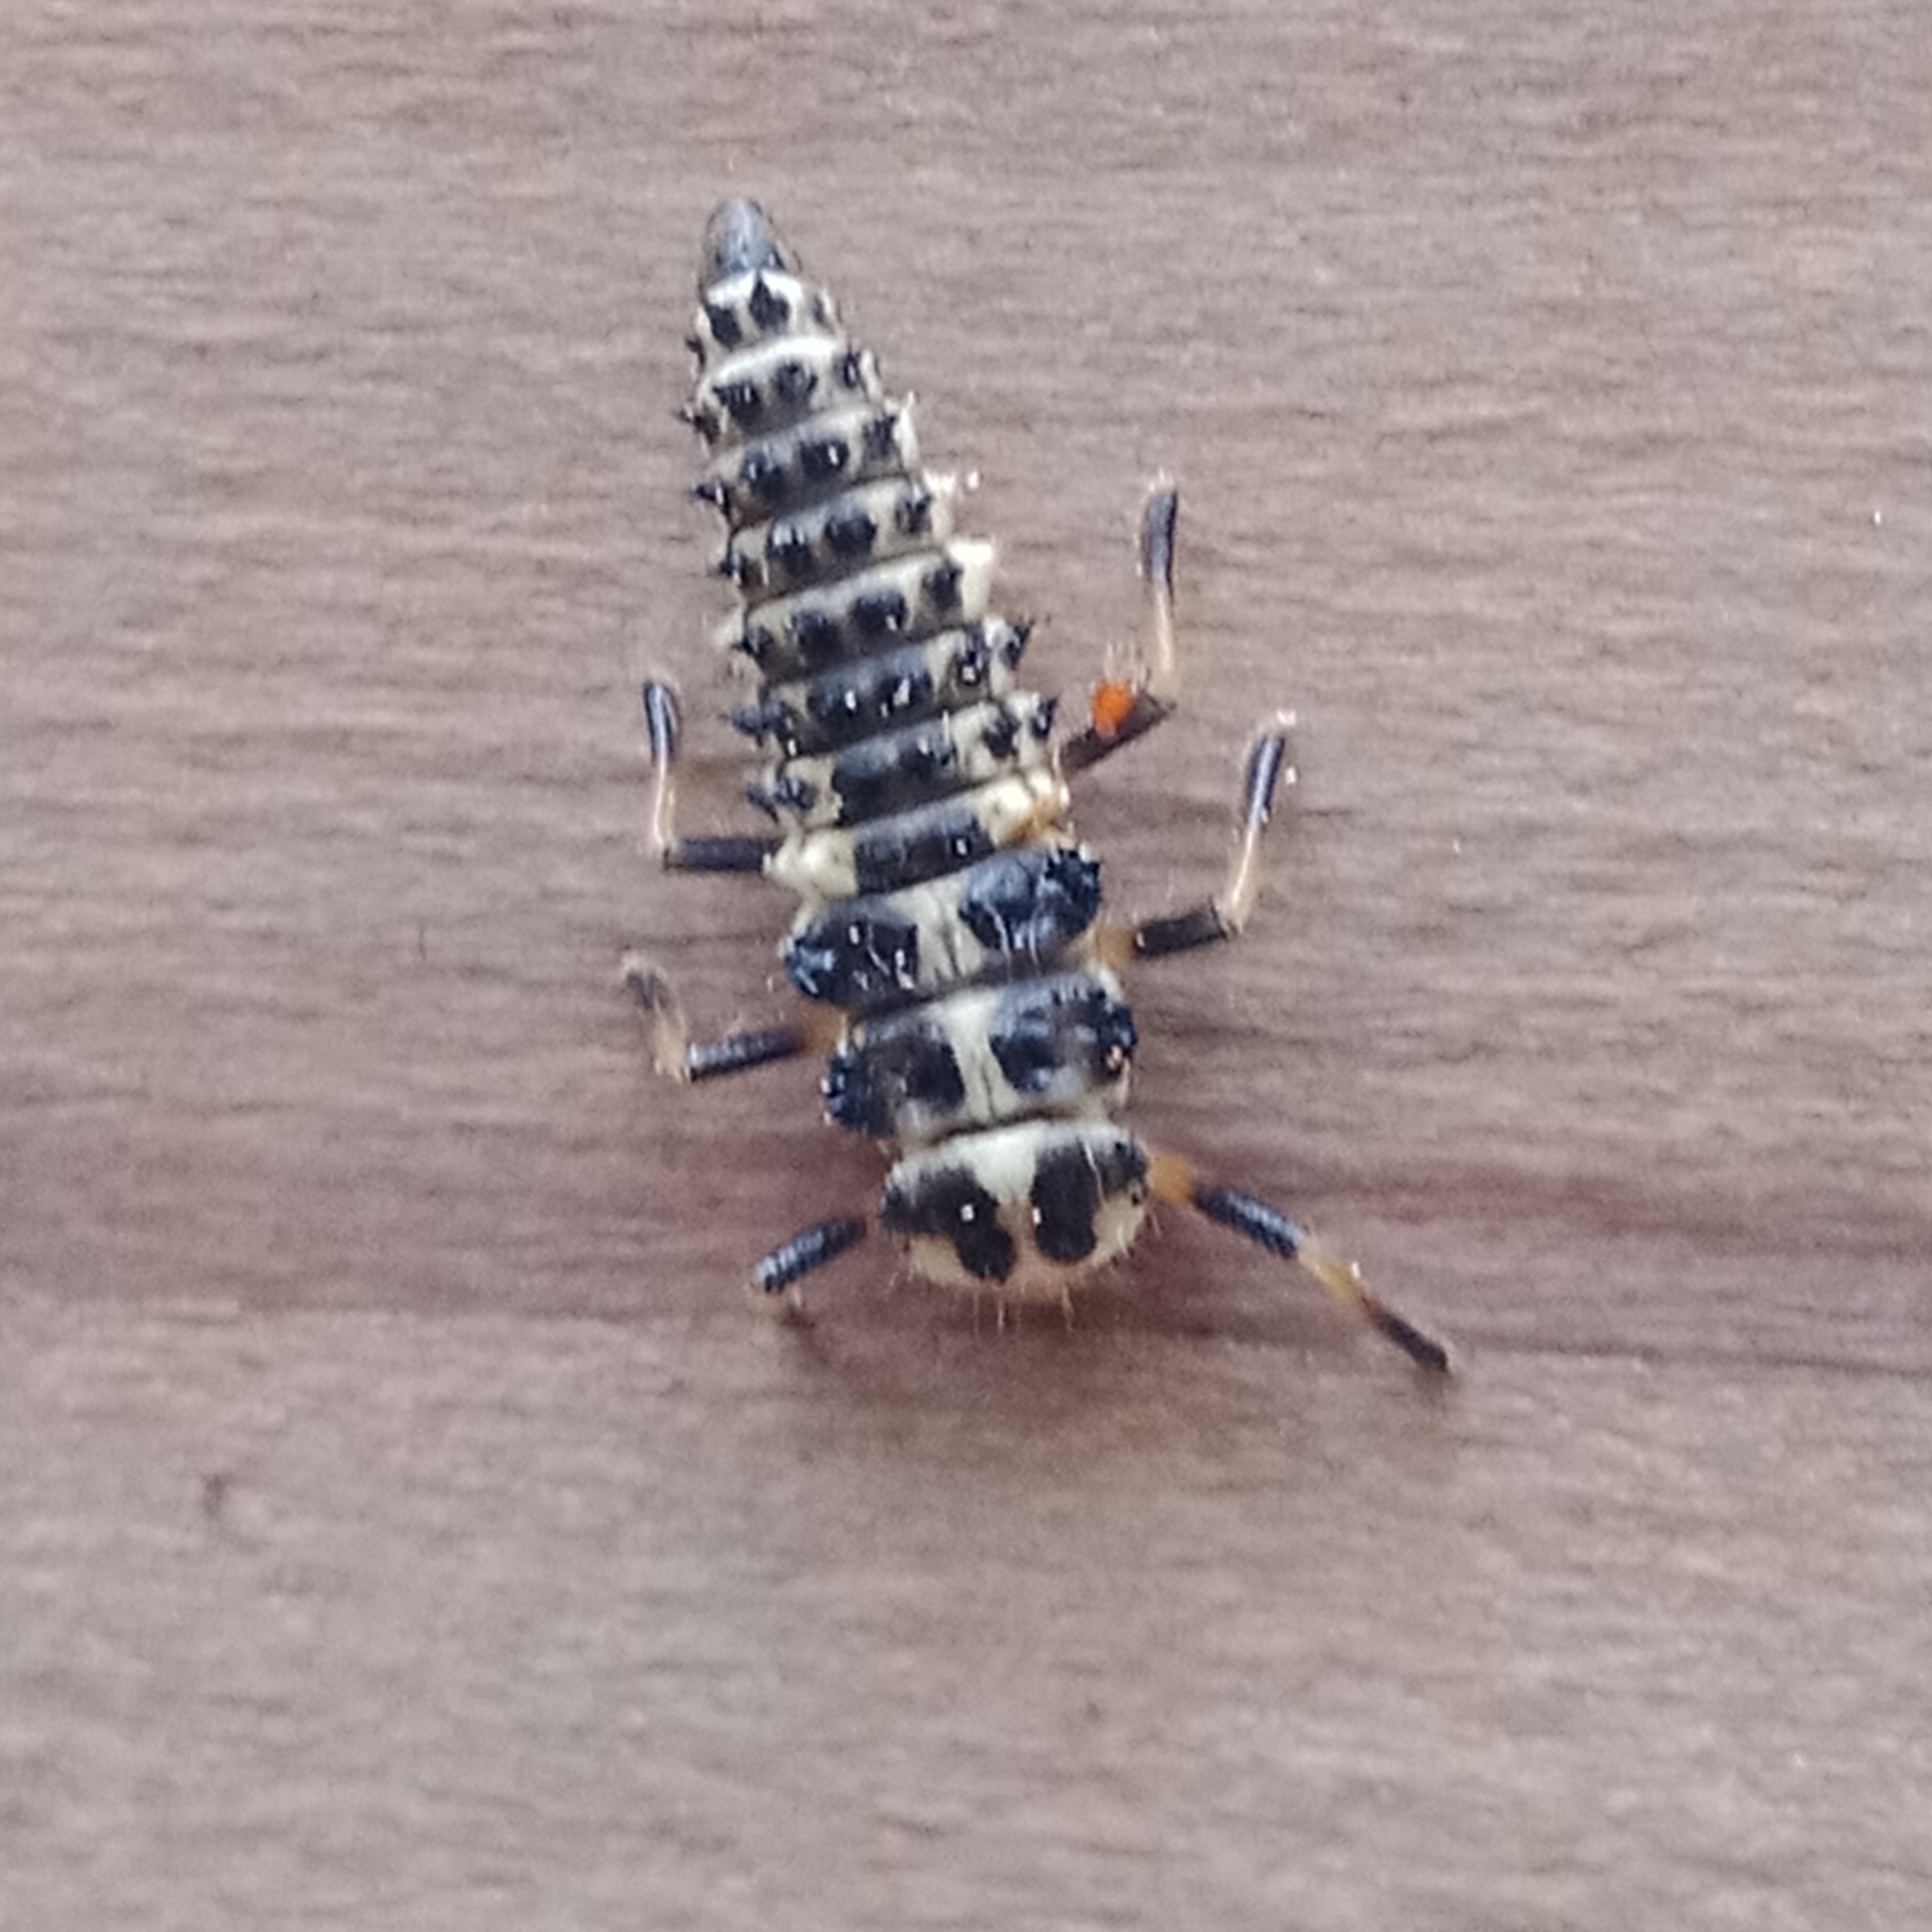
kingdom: Animalia
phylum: Arthropoda
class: Insecta
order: Coleoptera
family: Coccinellidae
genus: Sospita
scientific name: Sospita vigintiguttata
